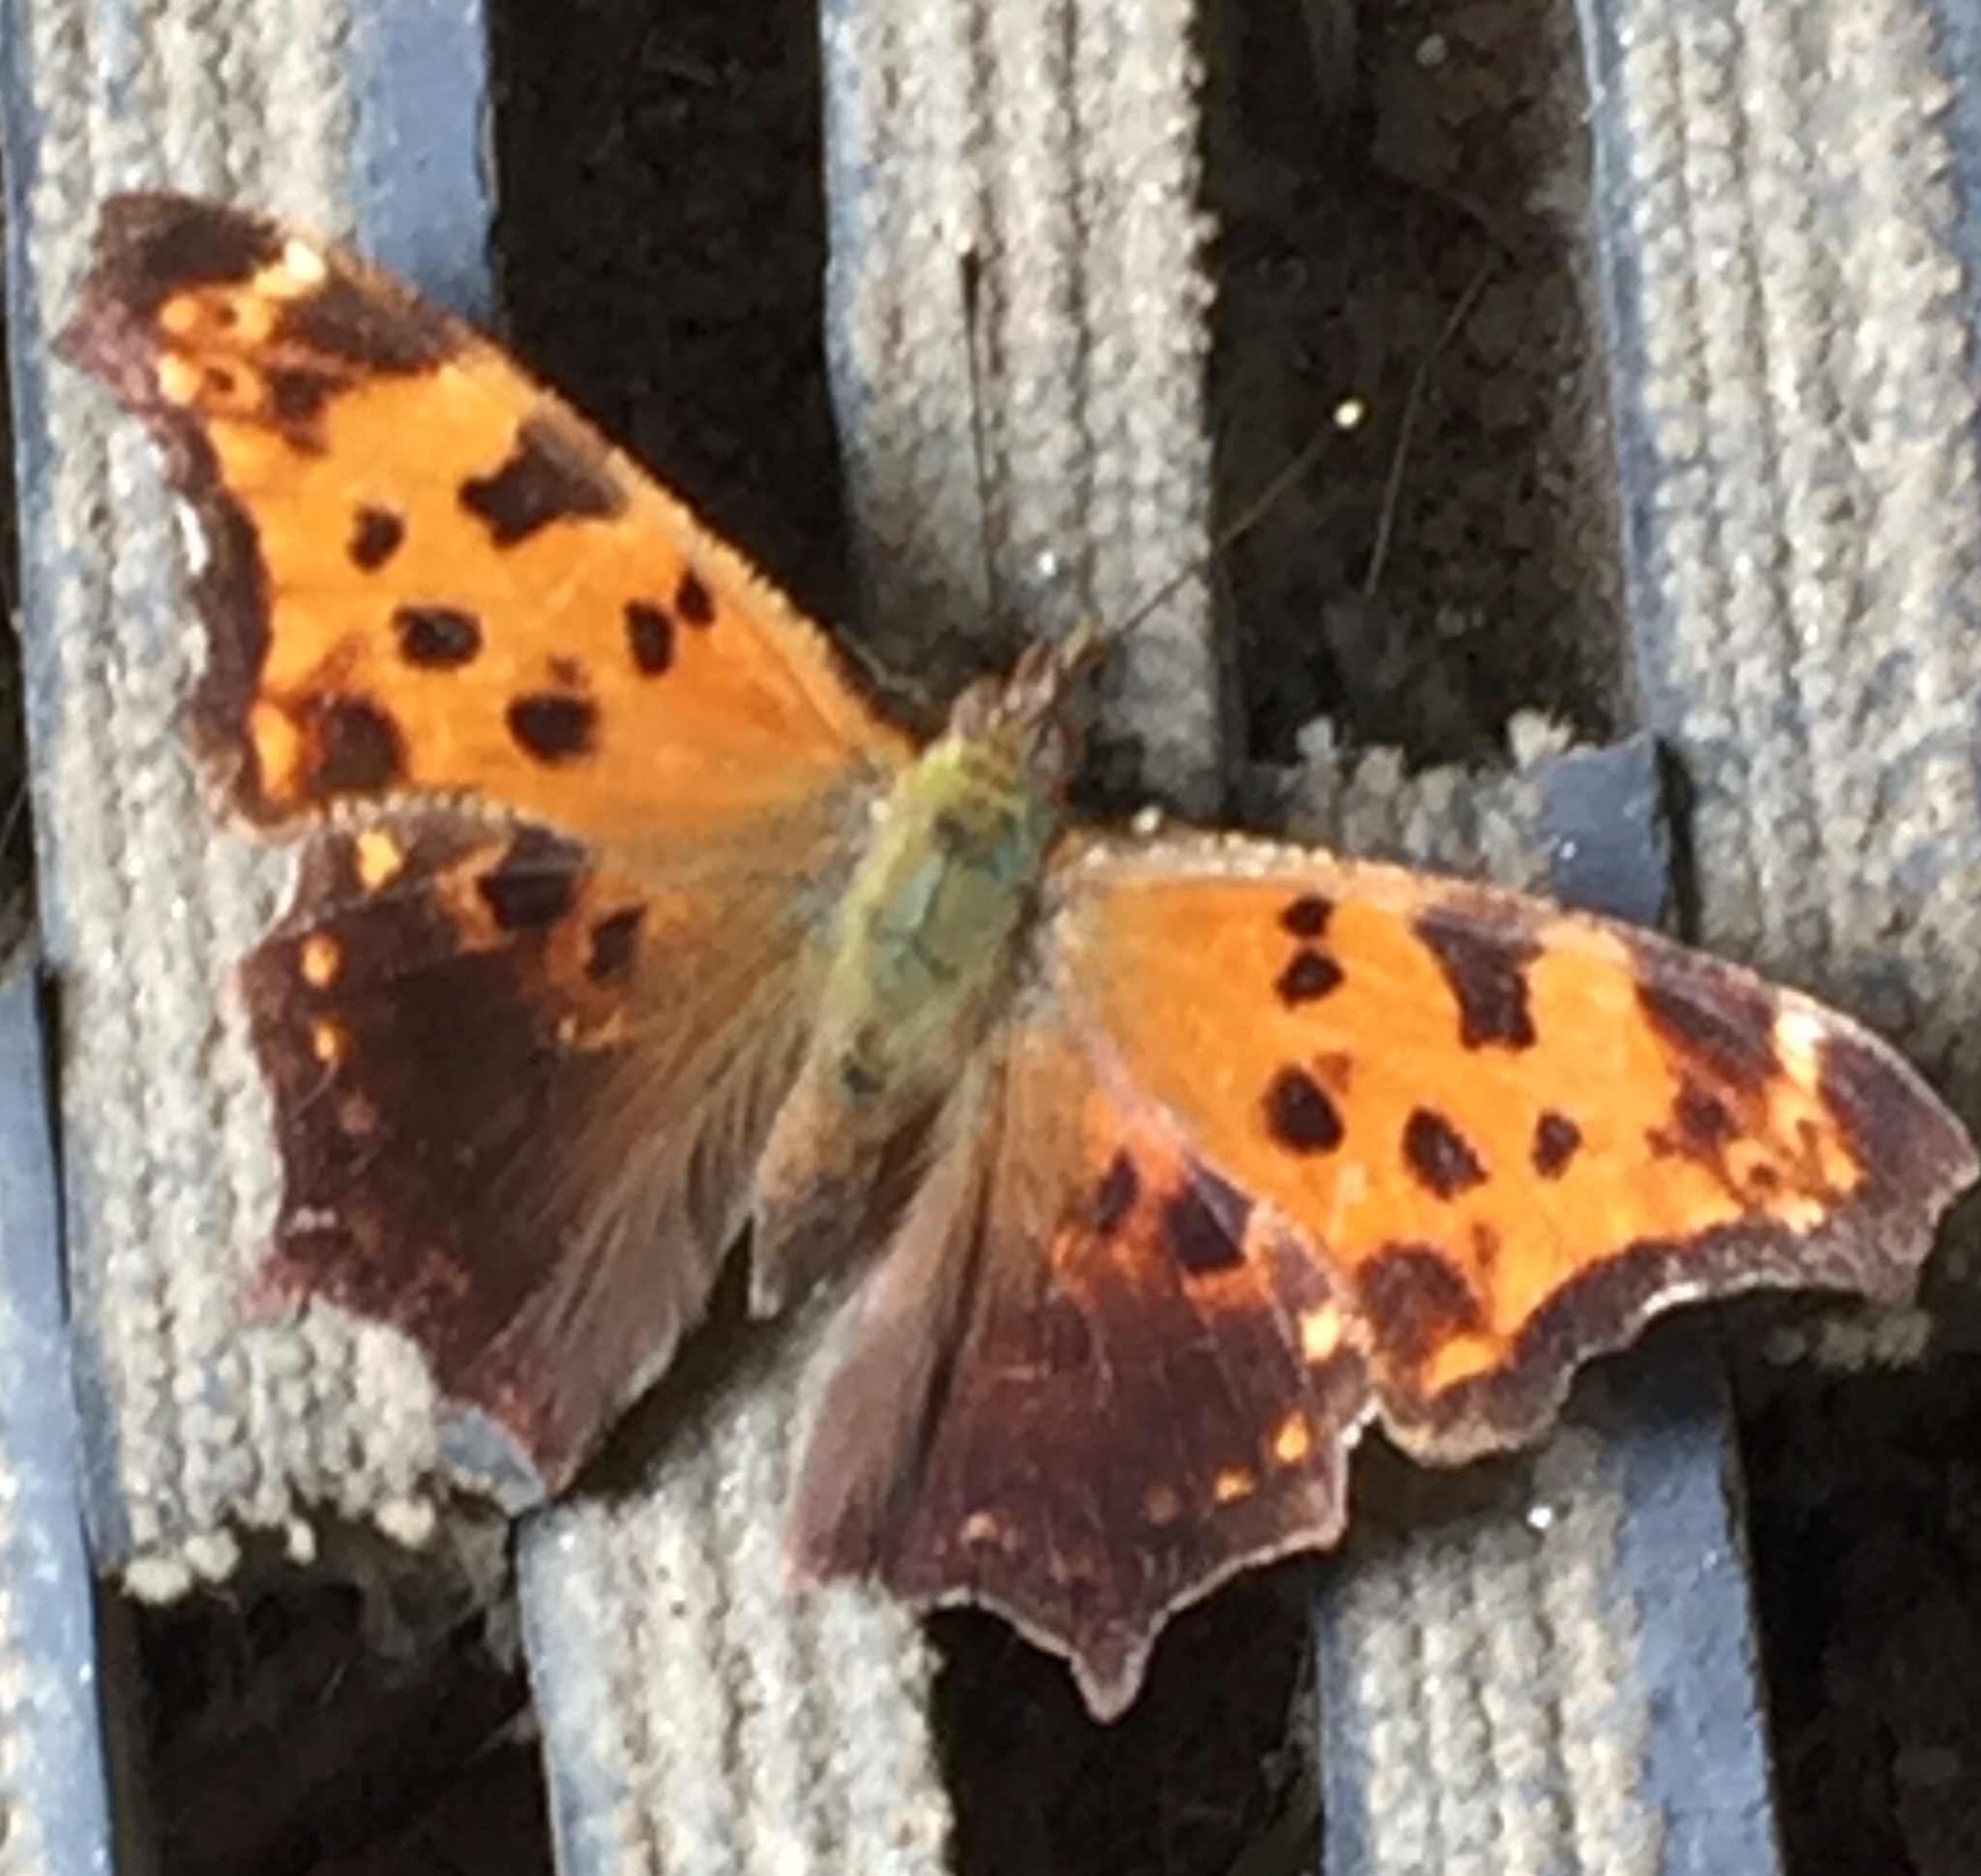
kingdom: Animalia
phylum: Arthropoda
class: Insecta
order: Lepidoptera
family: Nymphalidae
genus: Polygonia
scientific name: Polygonia comma
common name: Eastern comma
